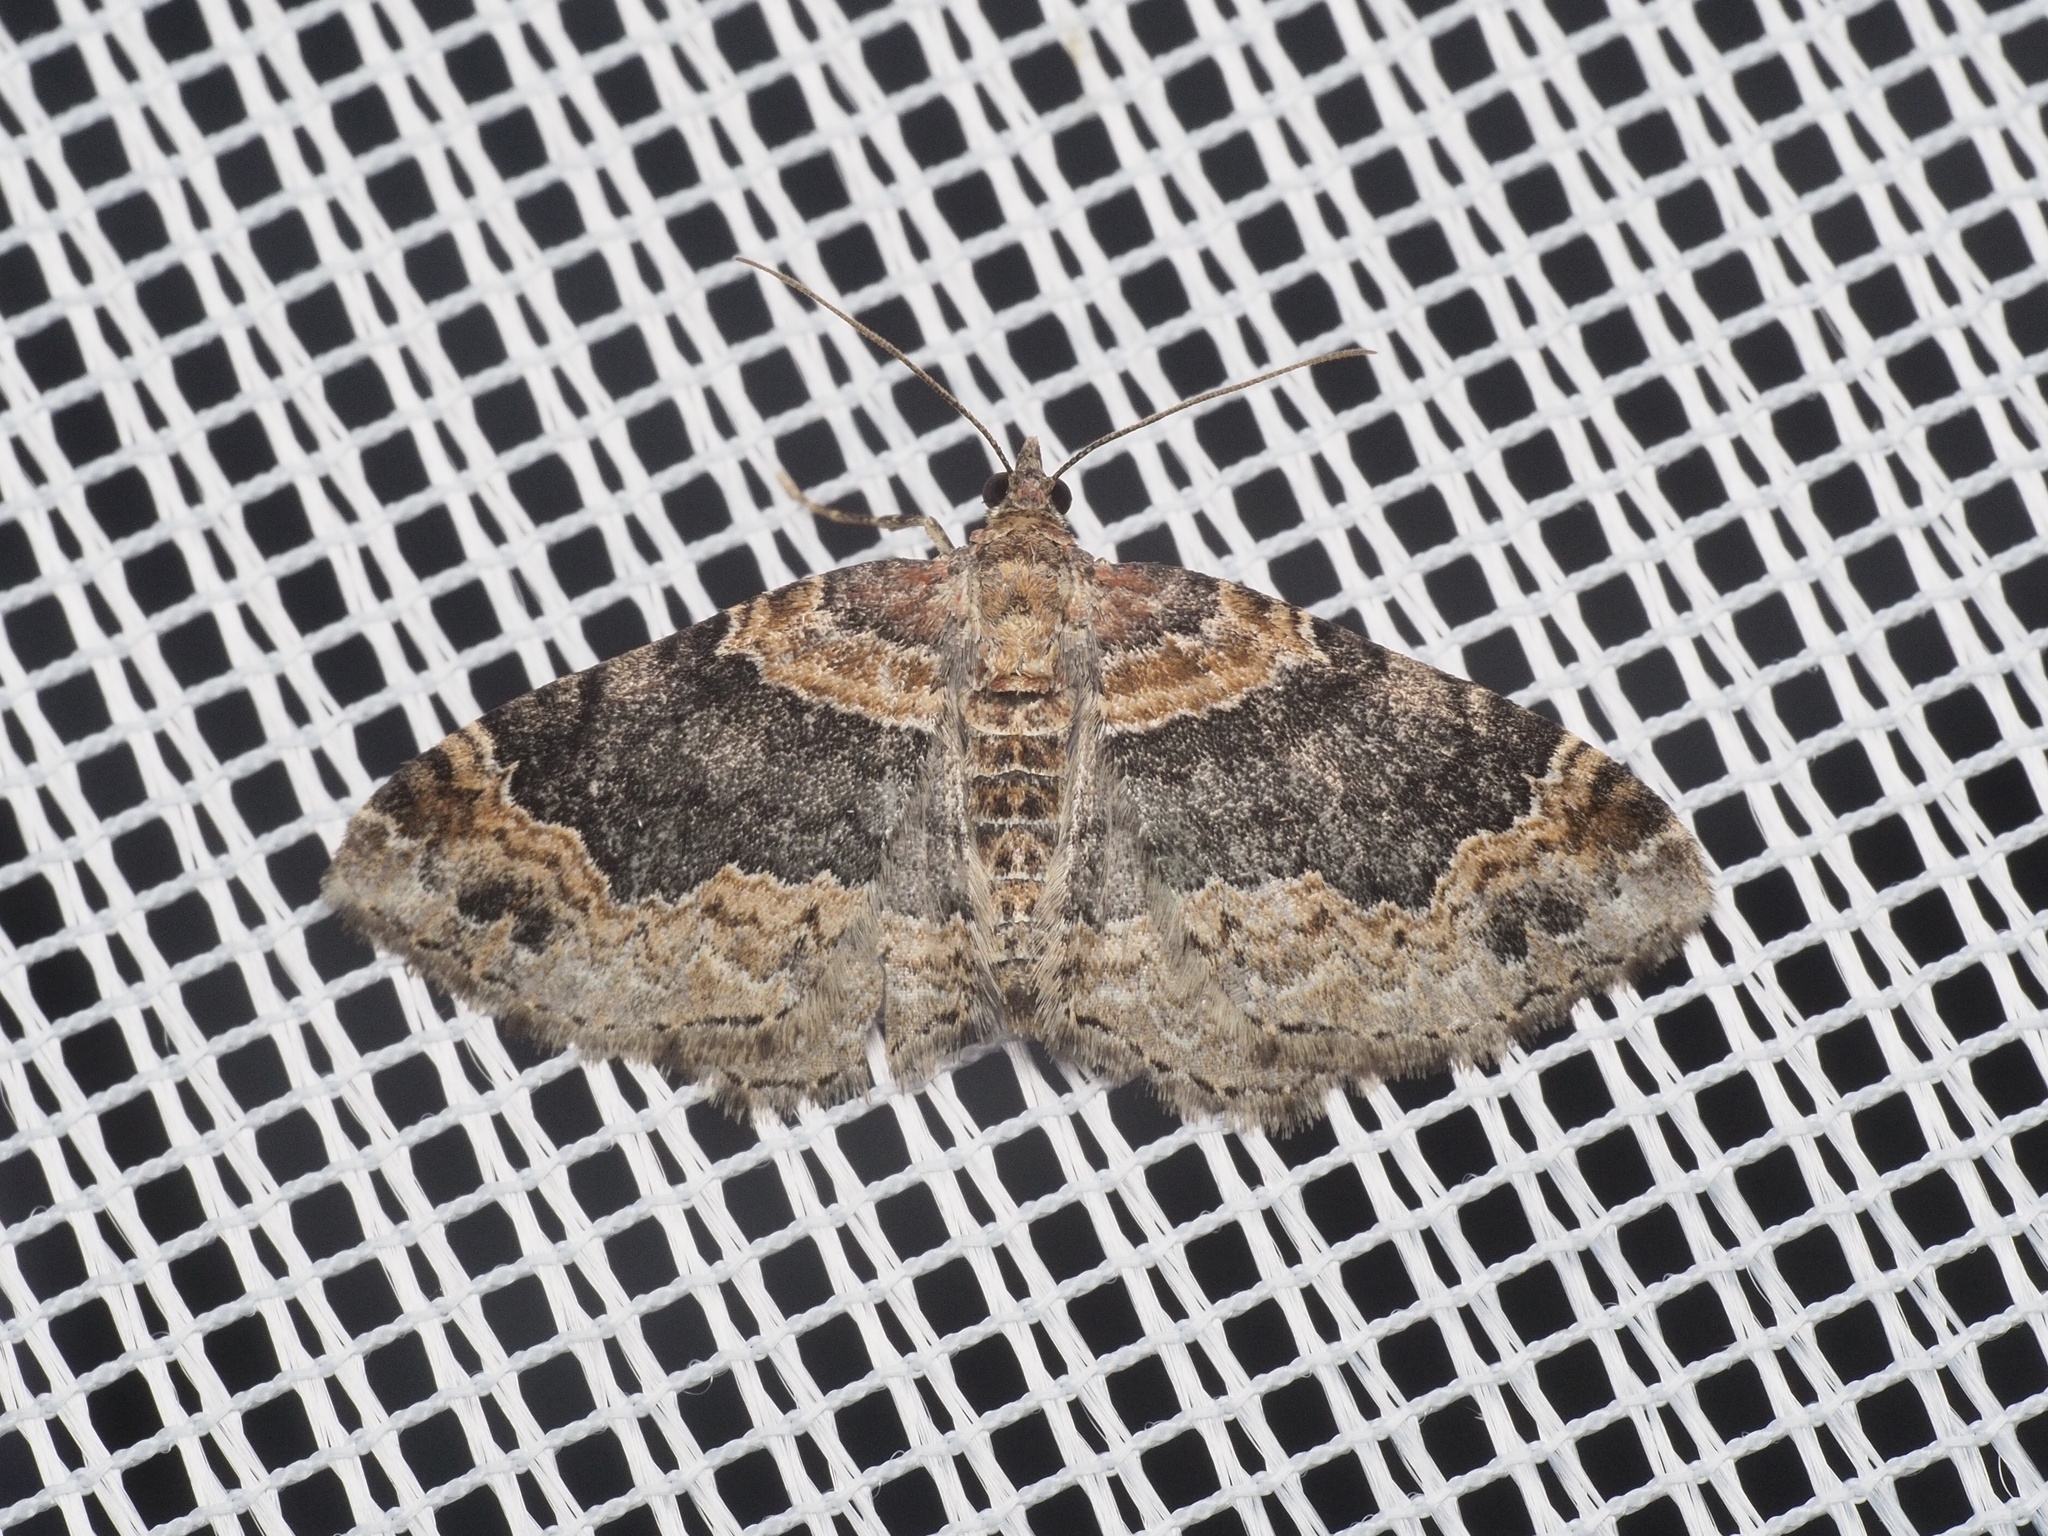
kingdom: Animalia
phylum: Arthropoda
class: Insecta
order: Lepidoptera
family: Geometridae
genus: Xanthorhoe
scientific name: Xanthorhoe ferrugata
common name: Dark-barred twin-spot carpet
